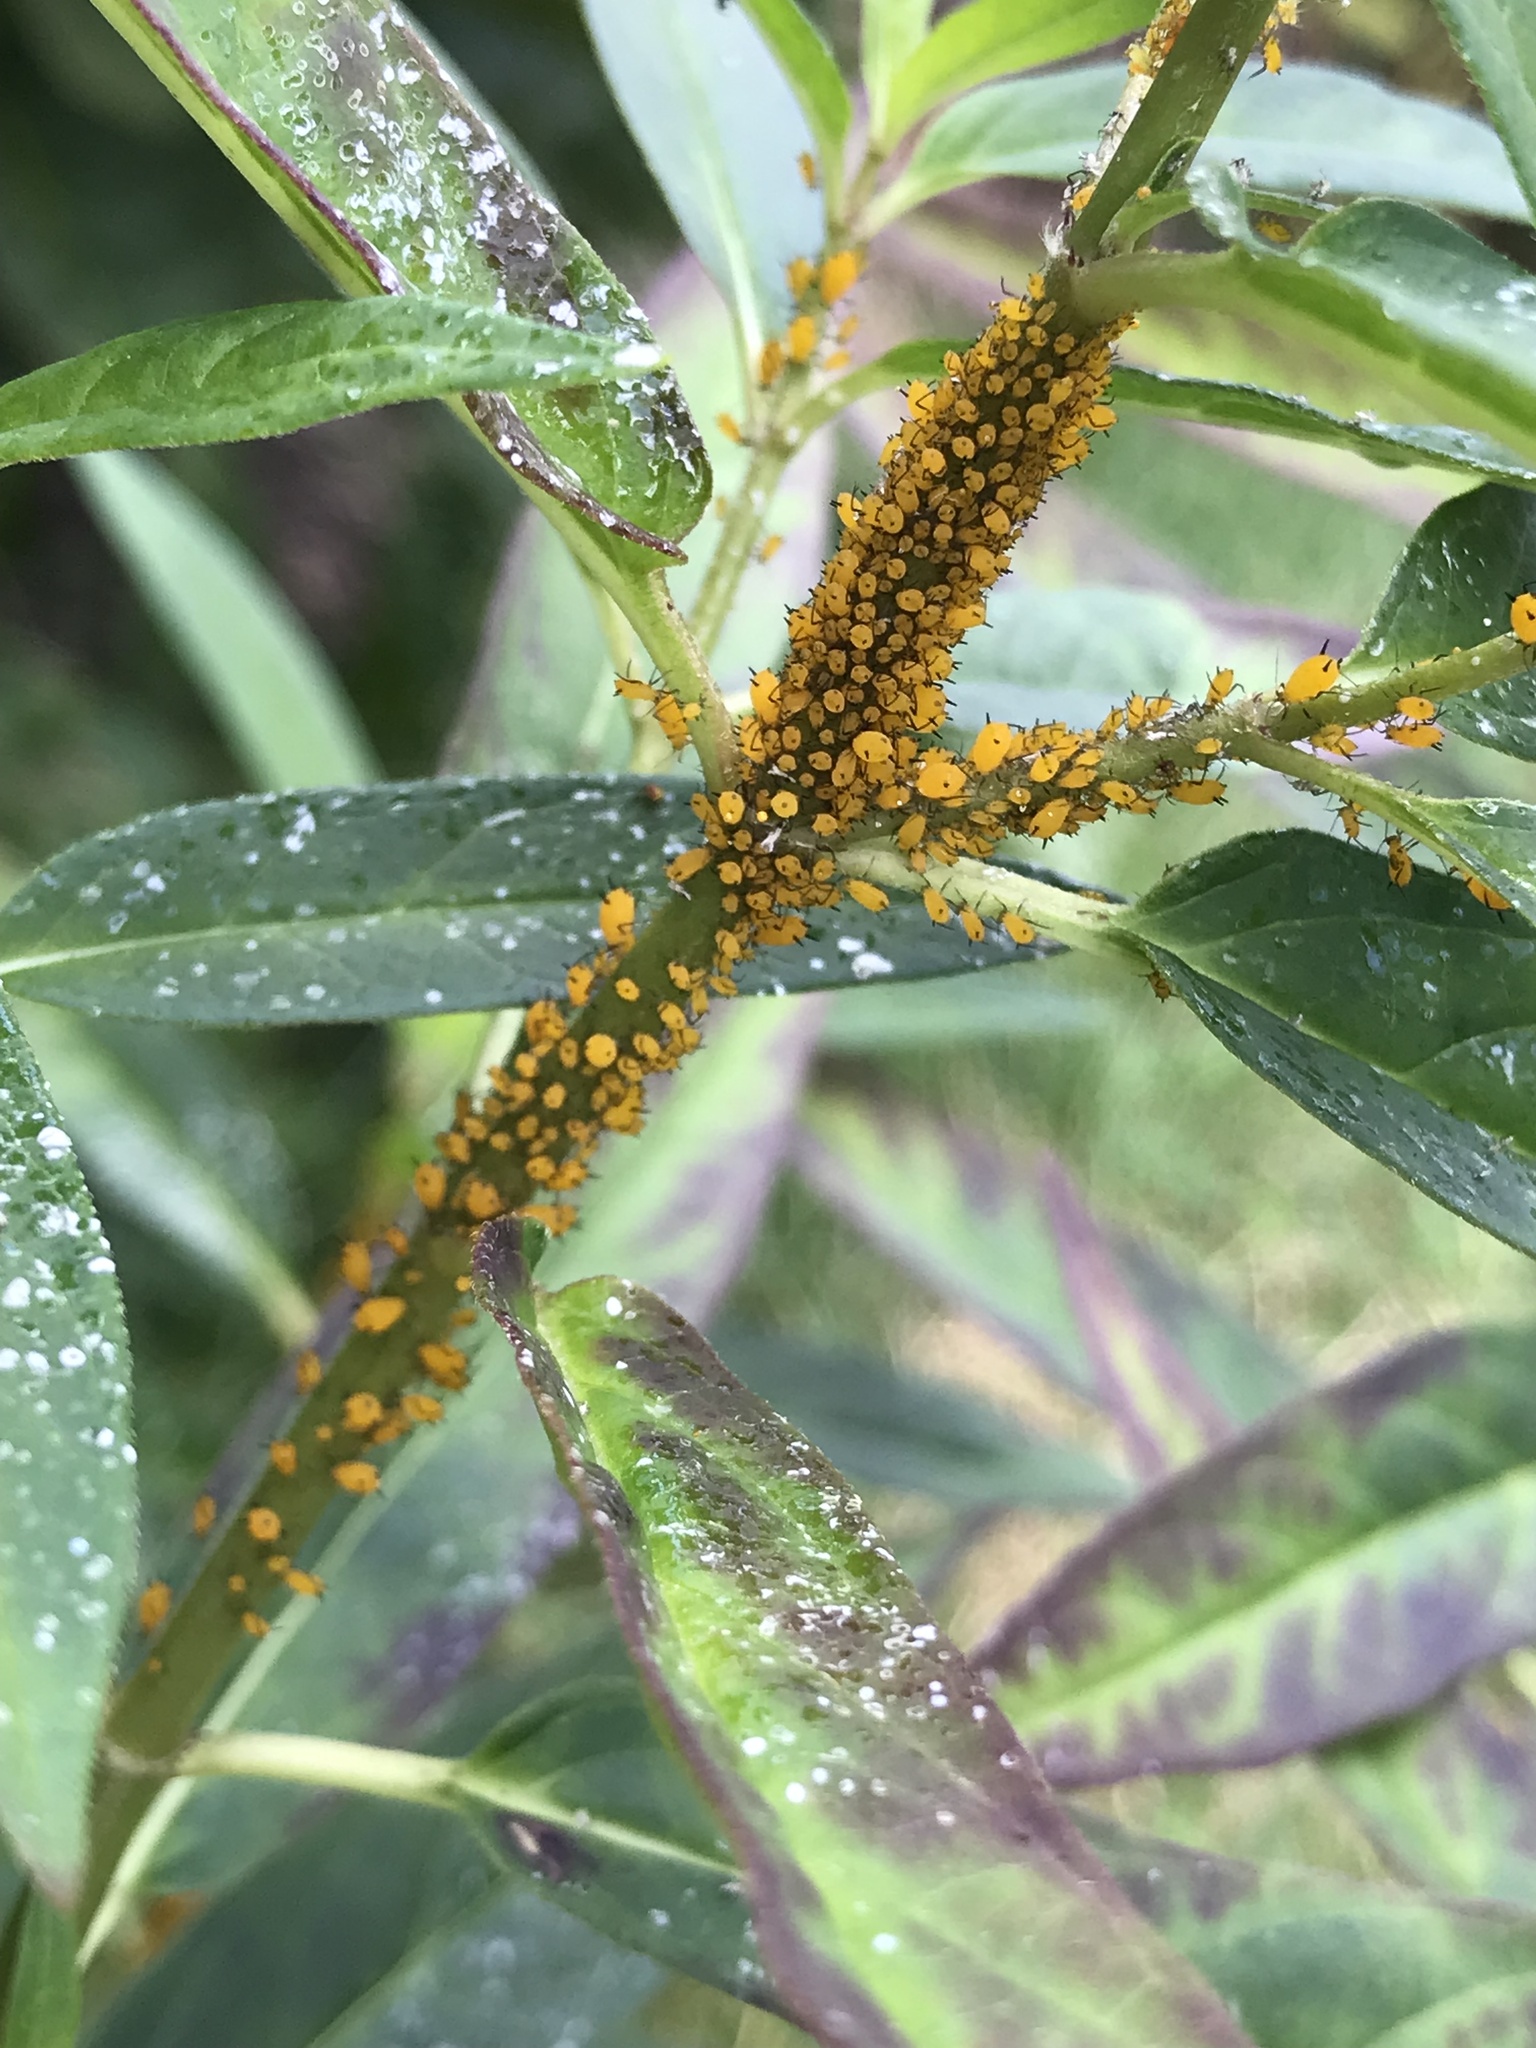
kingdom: Animalia
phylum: Arthropoda
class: Insecta
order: Hemiptera
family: Aphididae
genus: Aphis
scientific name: Aphis nerii
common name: Oleander aphid
